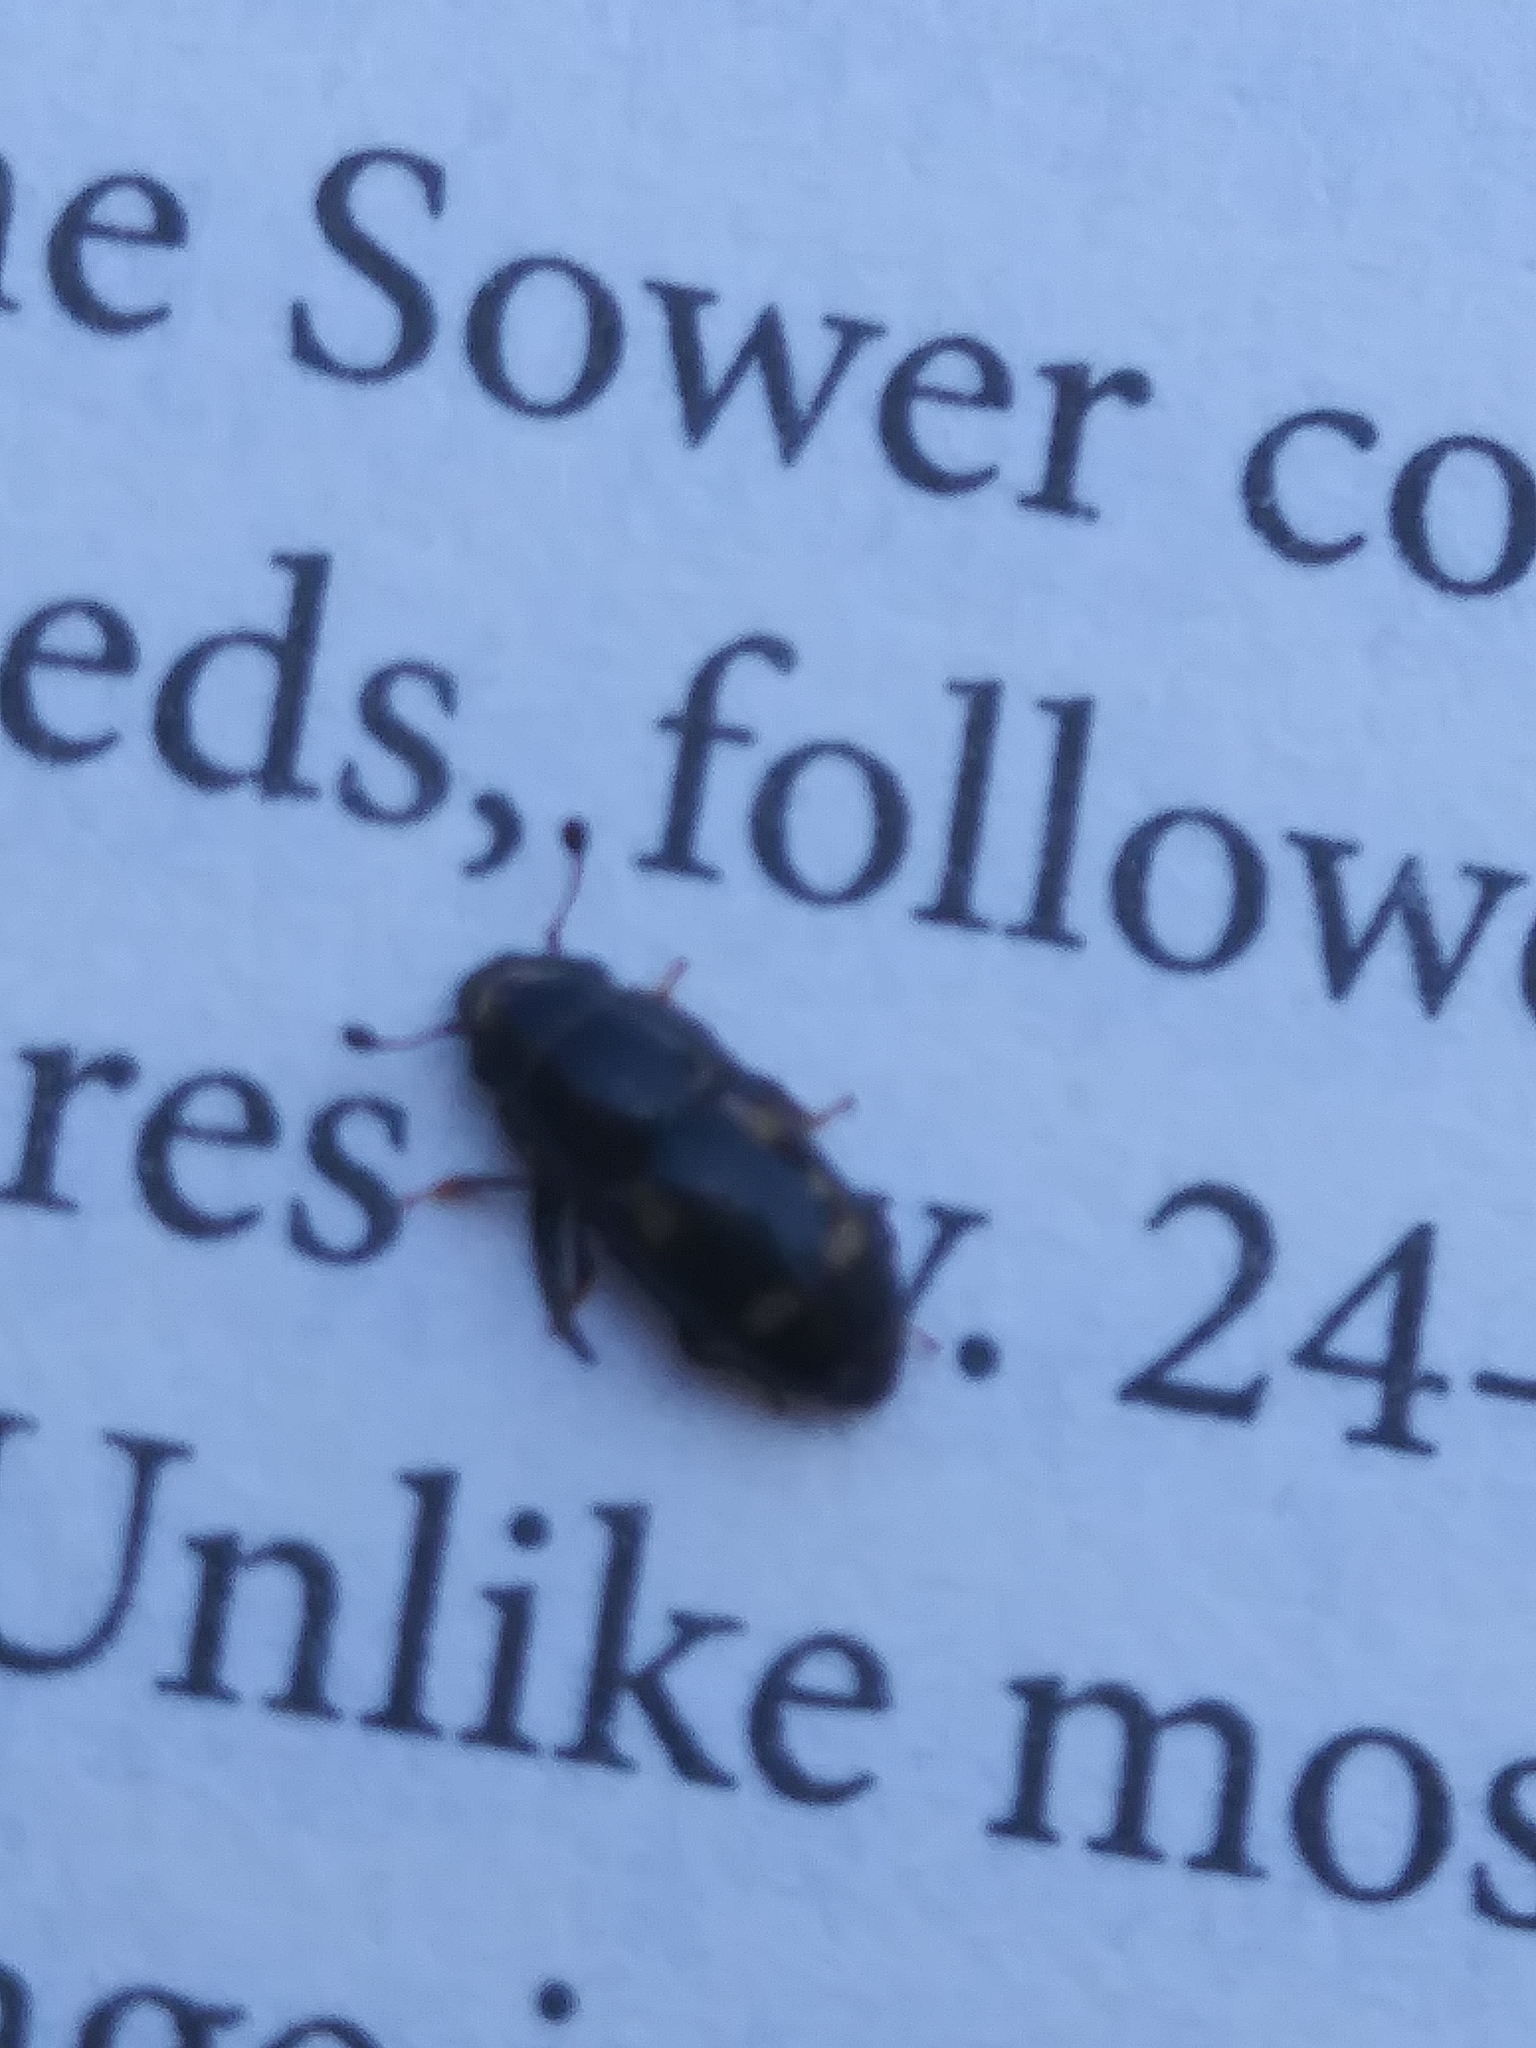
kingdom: Animalia
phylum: Arthropoda
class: Insecta
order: Coleoptera
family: Nitidulidae
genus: Glischrochilus
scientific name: Glischrochilus quadrisignatus
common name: Picnic beetle
